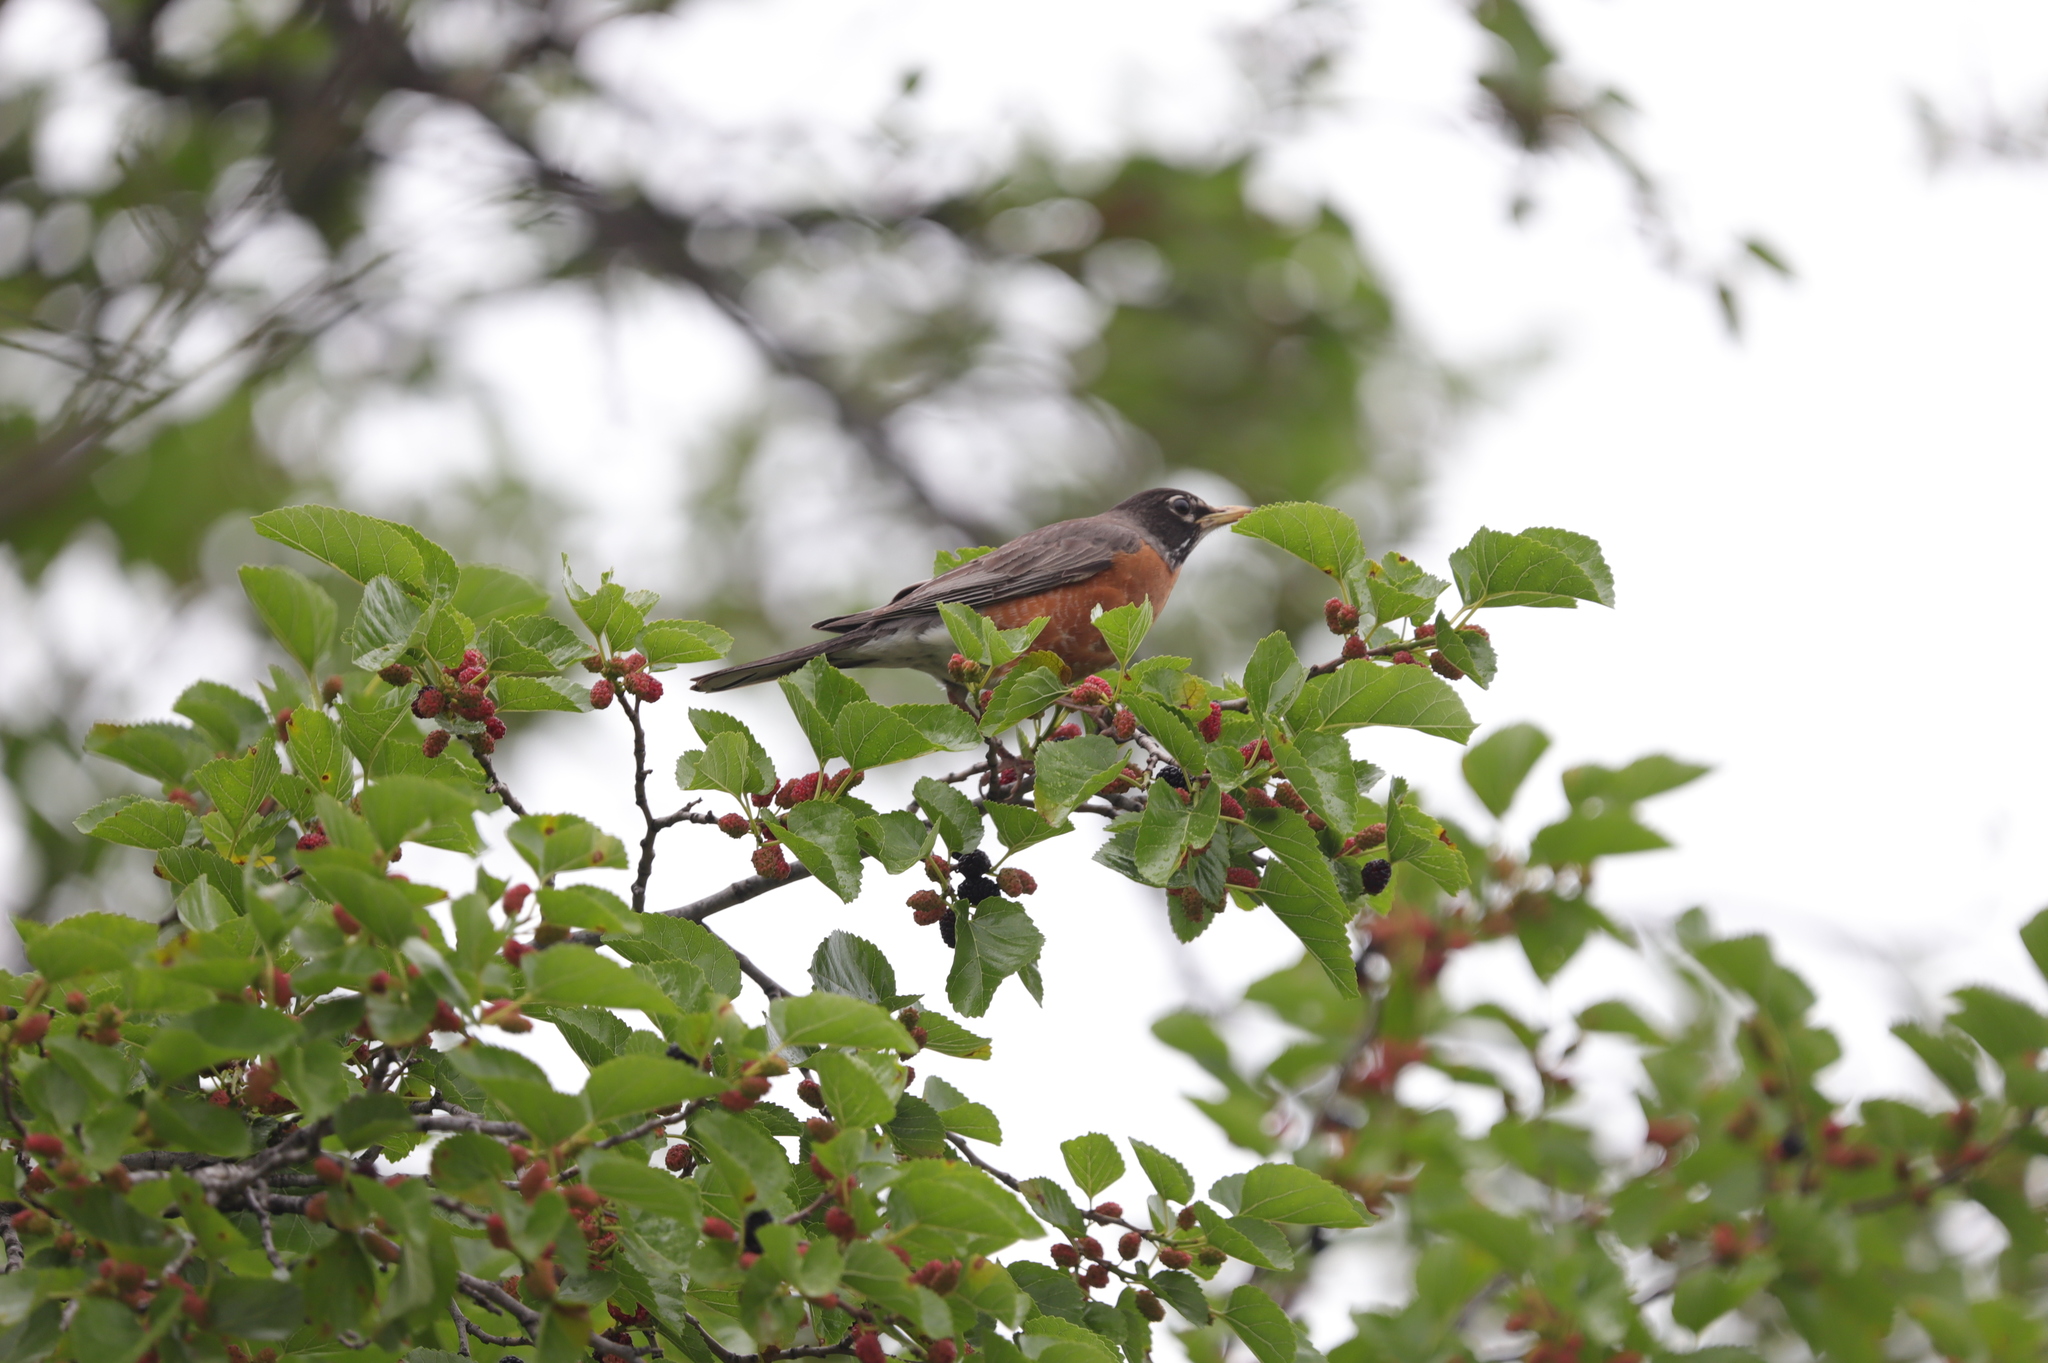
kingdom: Animalia
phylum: Chordata
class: Aves
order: Passeriformes
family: Turdidae
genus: Turdus
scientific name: Turdus migratorius
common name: American robin
